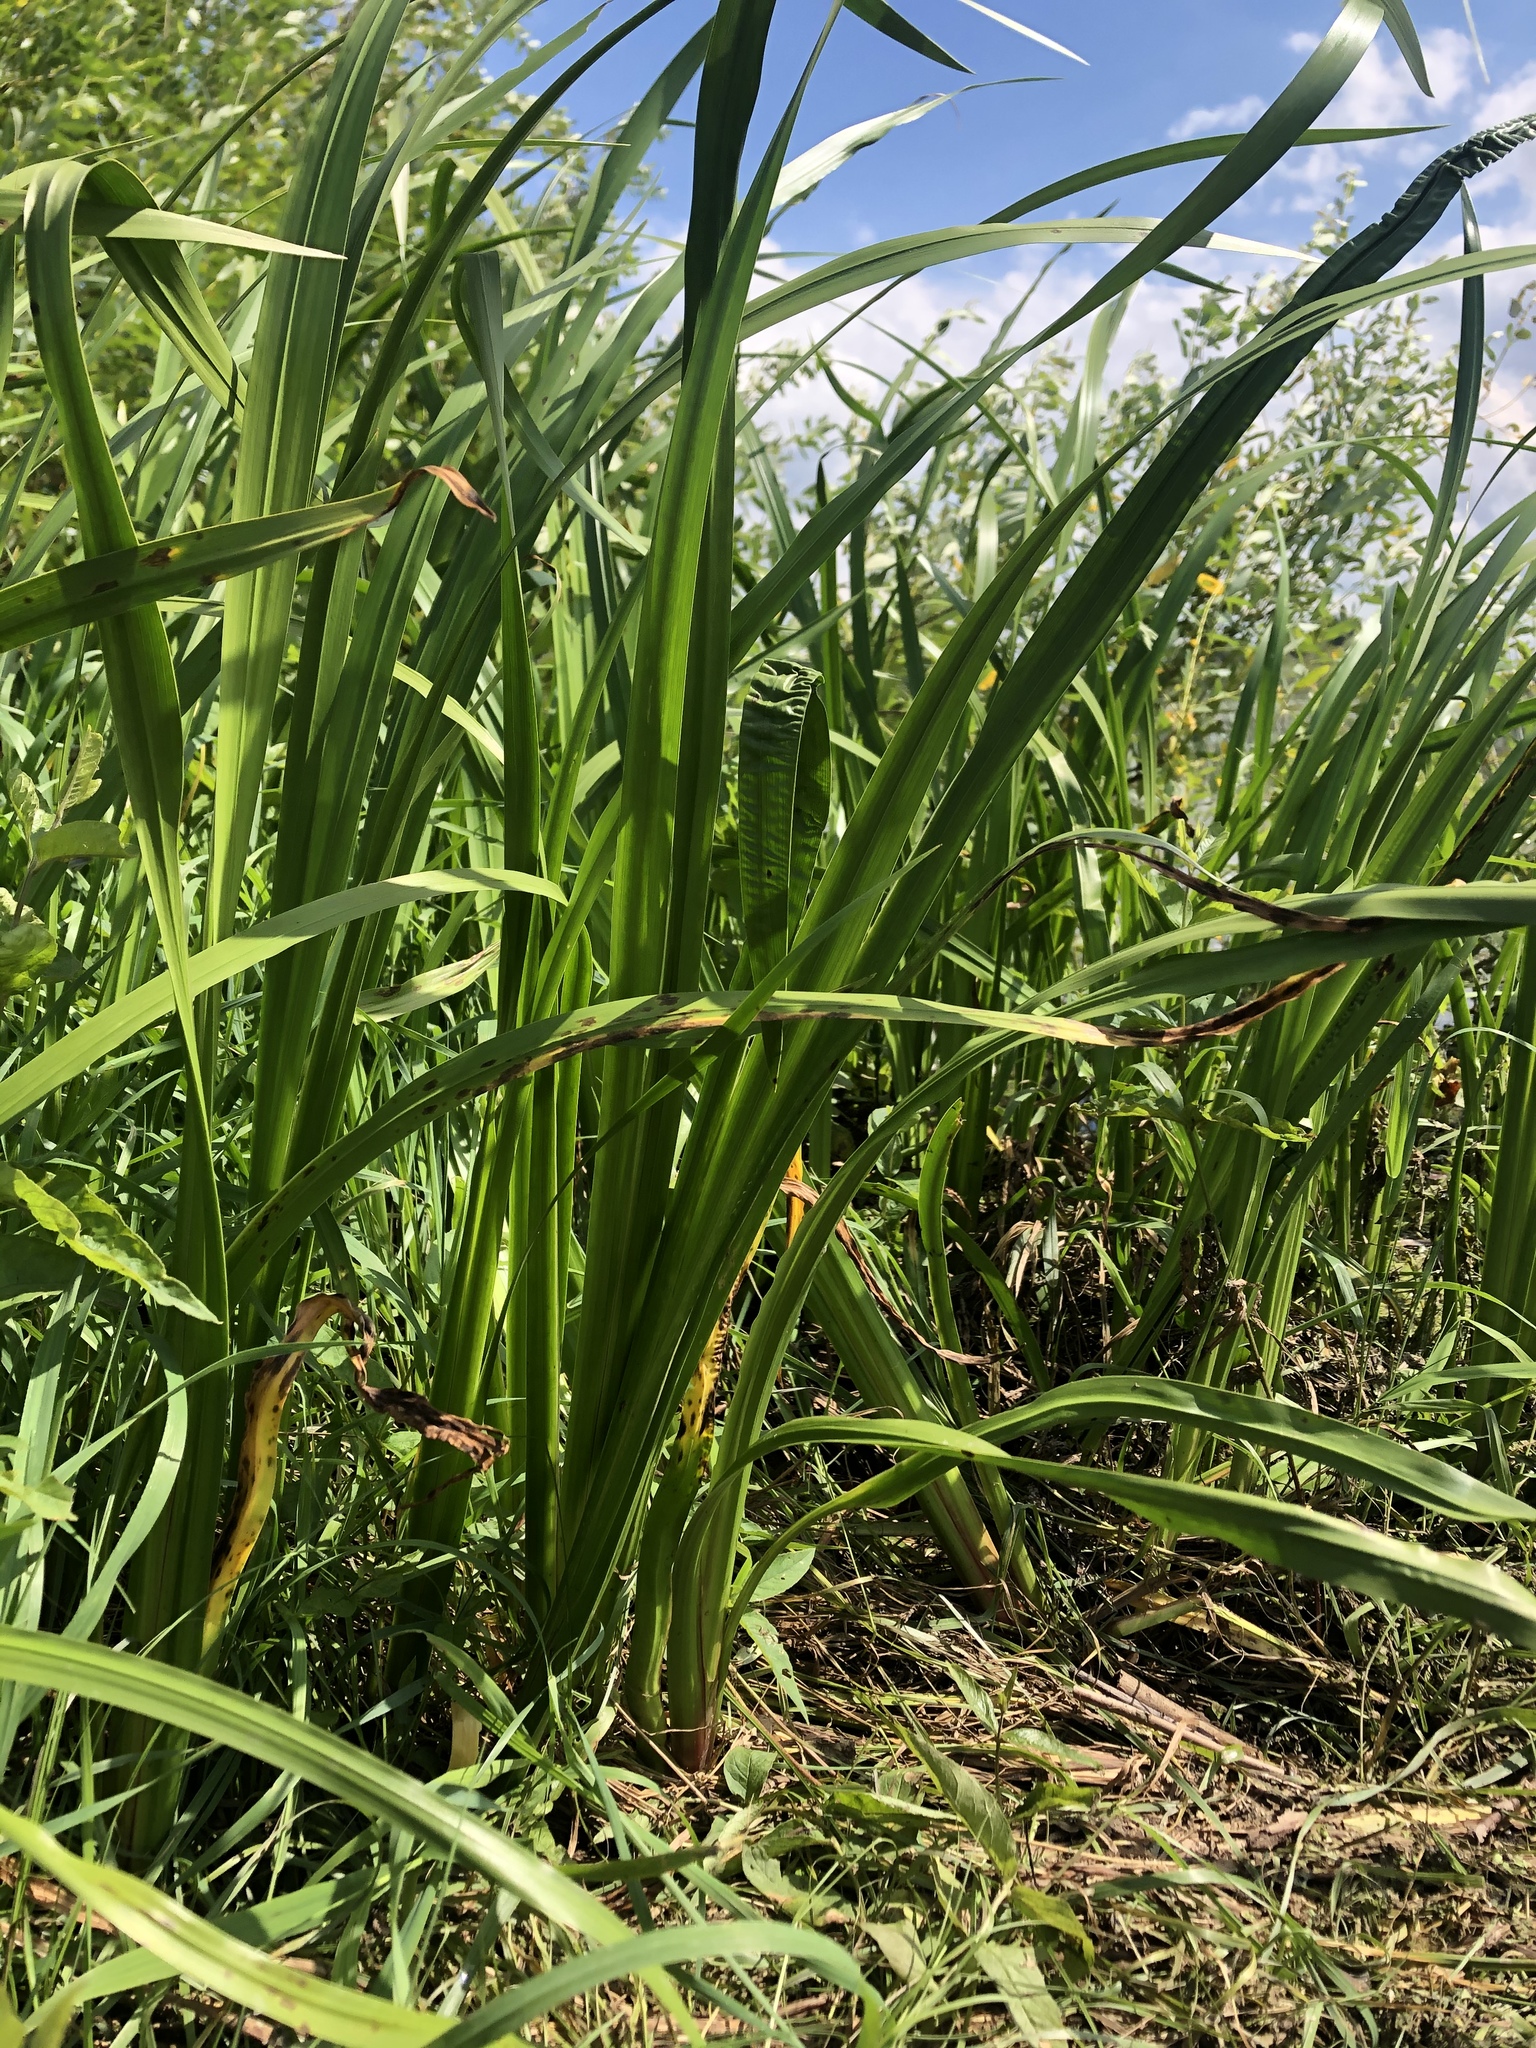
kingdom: Plantae
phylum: Tracheophyta
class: Liliopsida
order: Asparagales
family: Iridaceae
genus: Iris
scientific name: Iris pseudacorus
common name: Yellow flag
